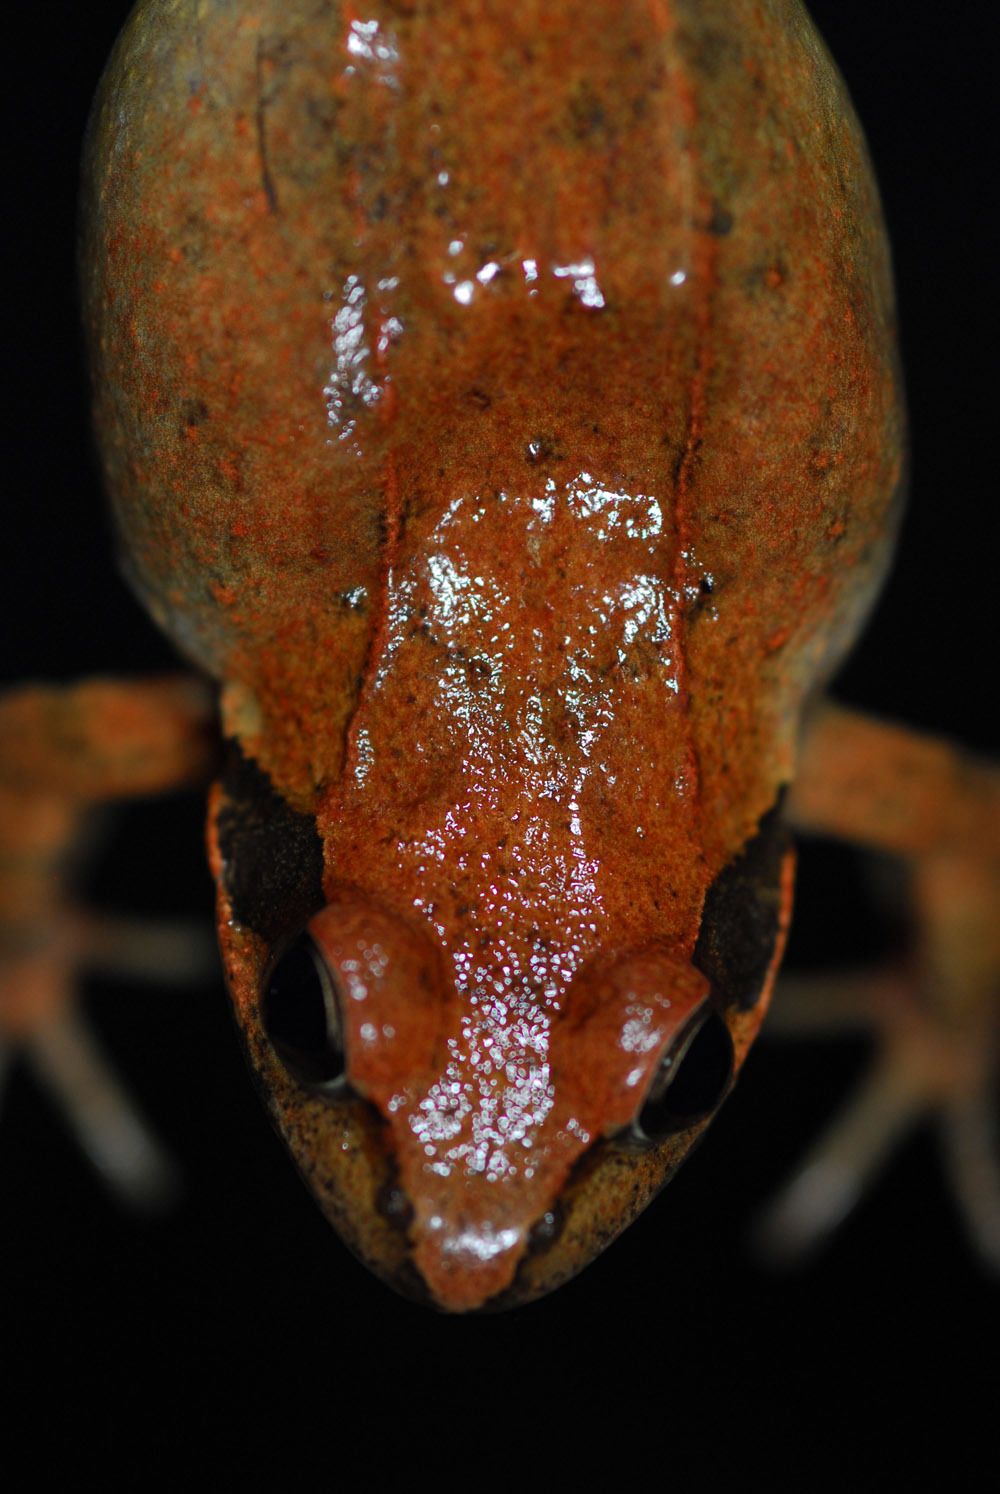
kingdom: Animalia
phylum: Chordata
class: Amphibia
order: Anura
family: Ranidae
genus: Rana
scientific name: Rana huanrenensis
